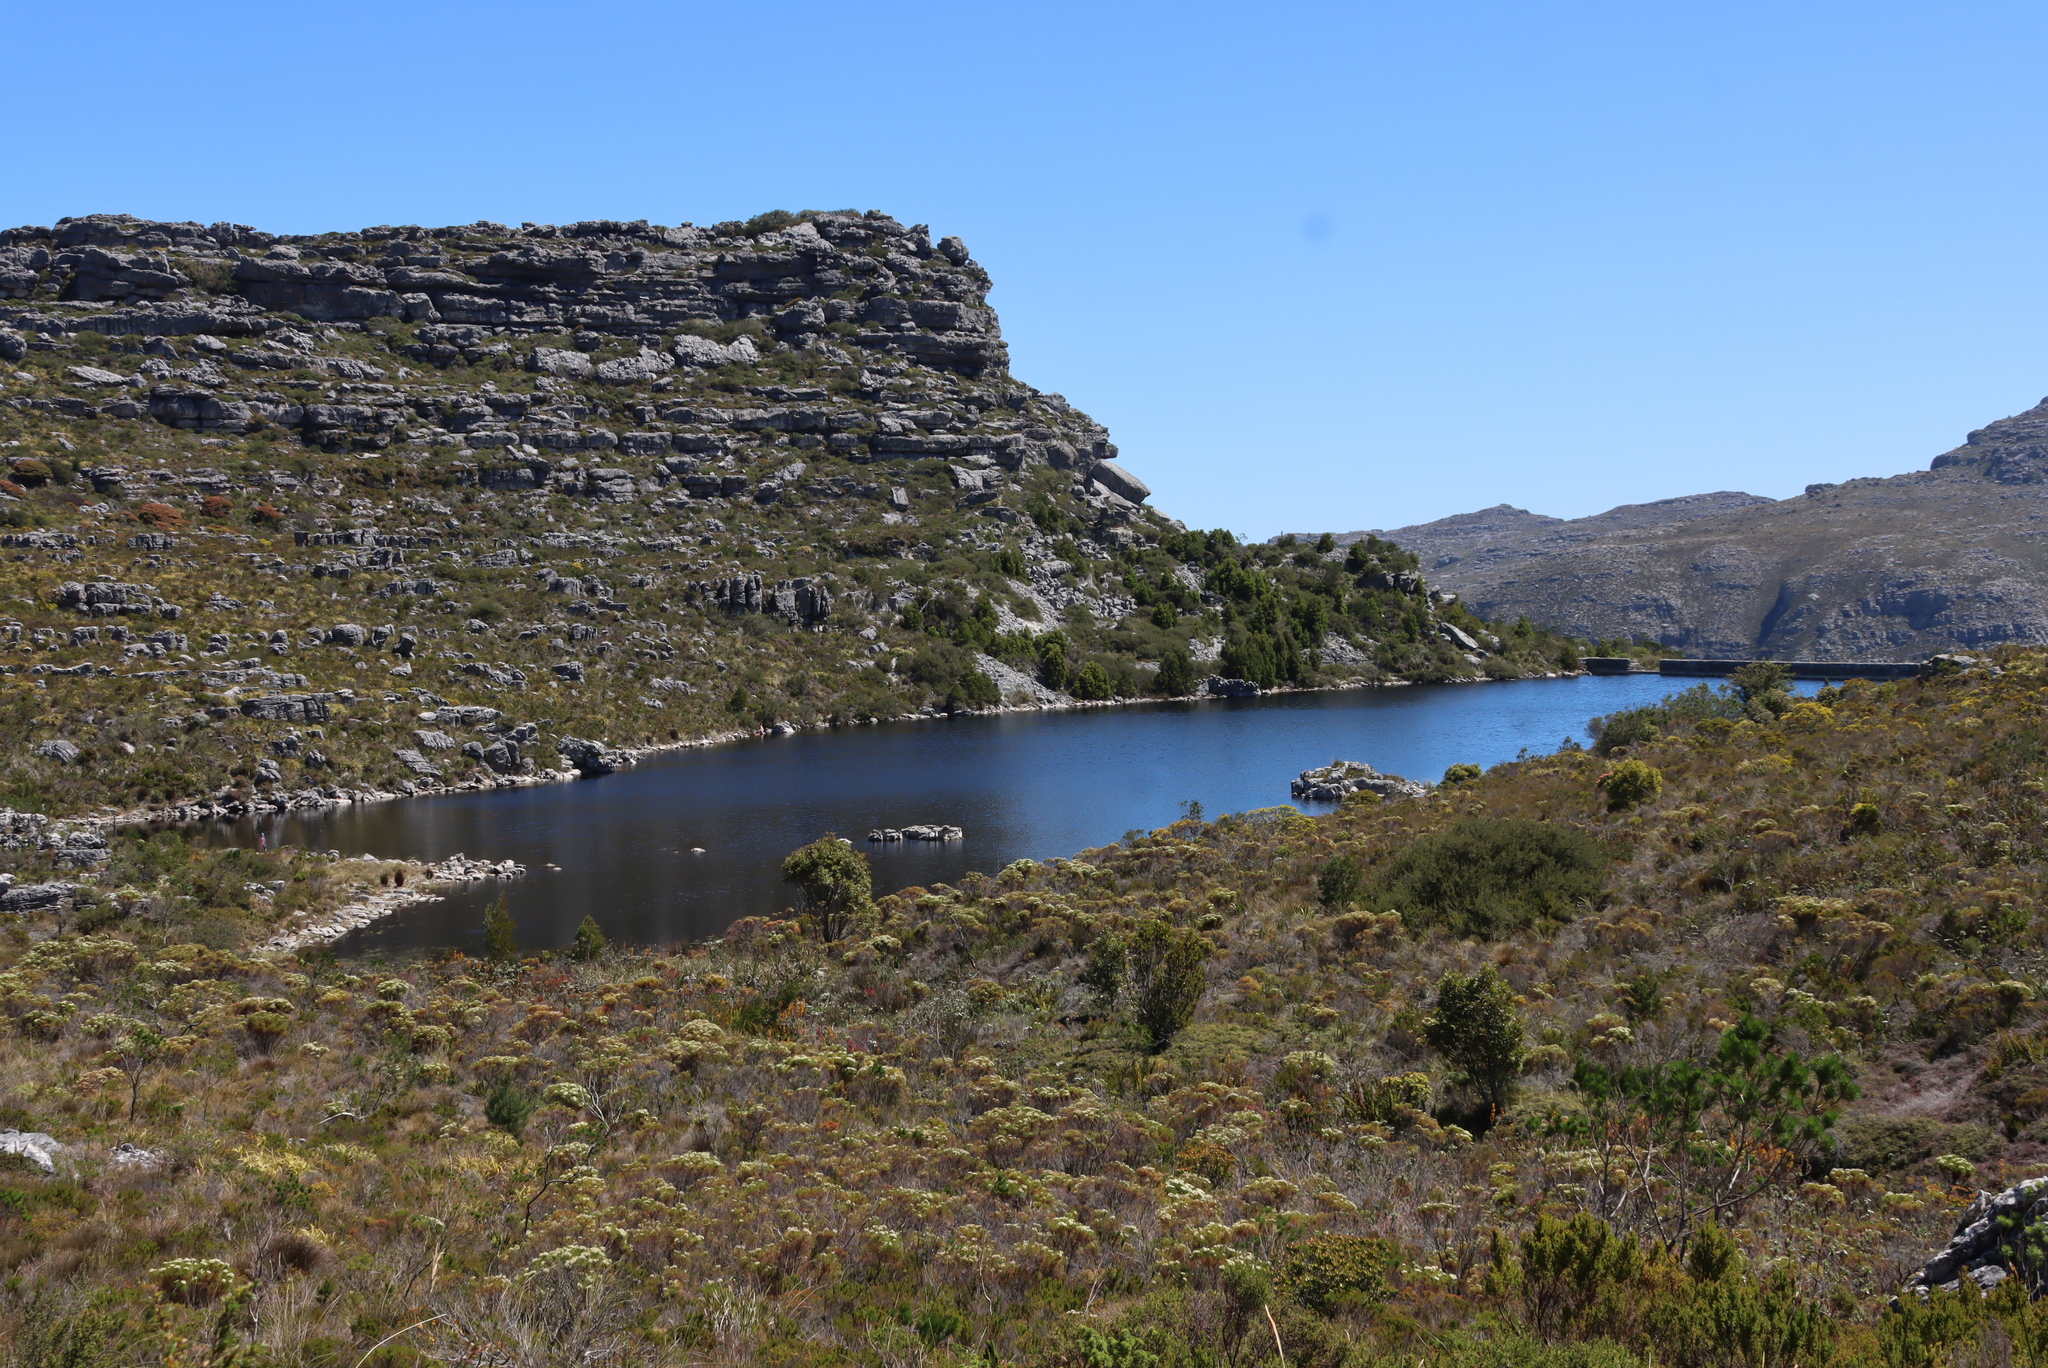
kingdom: Plantae
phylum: Tracheophyta
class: Magnoliopsida
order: Fabales
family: Fabaceae
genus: Acacia
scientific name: Acacia melanoxylon
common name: Blackwood
